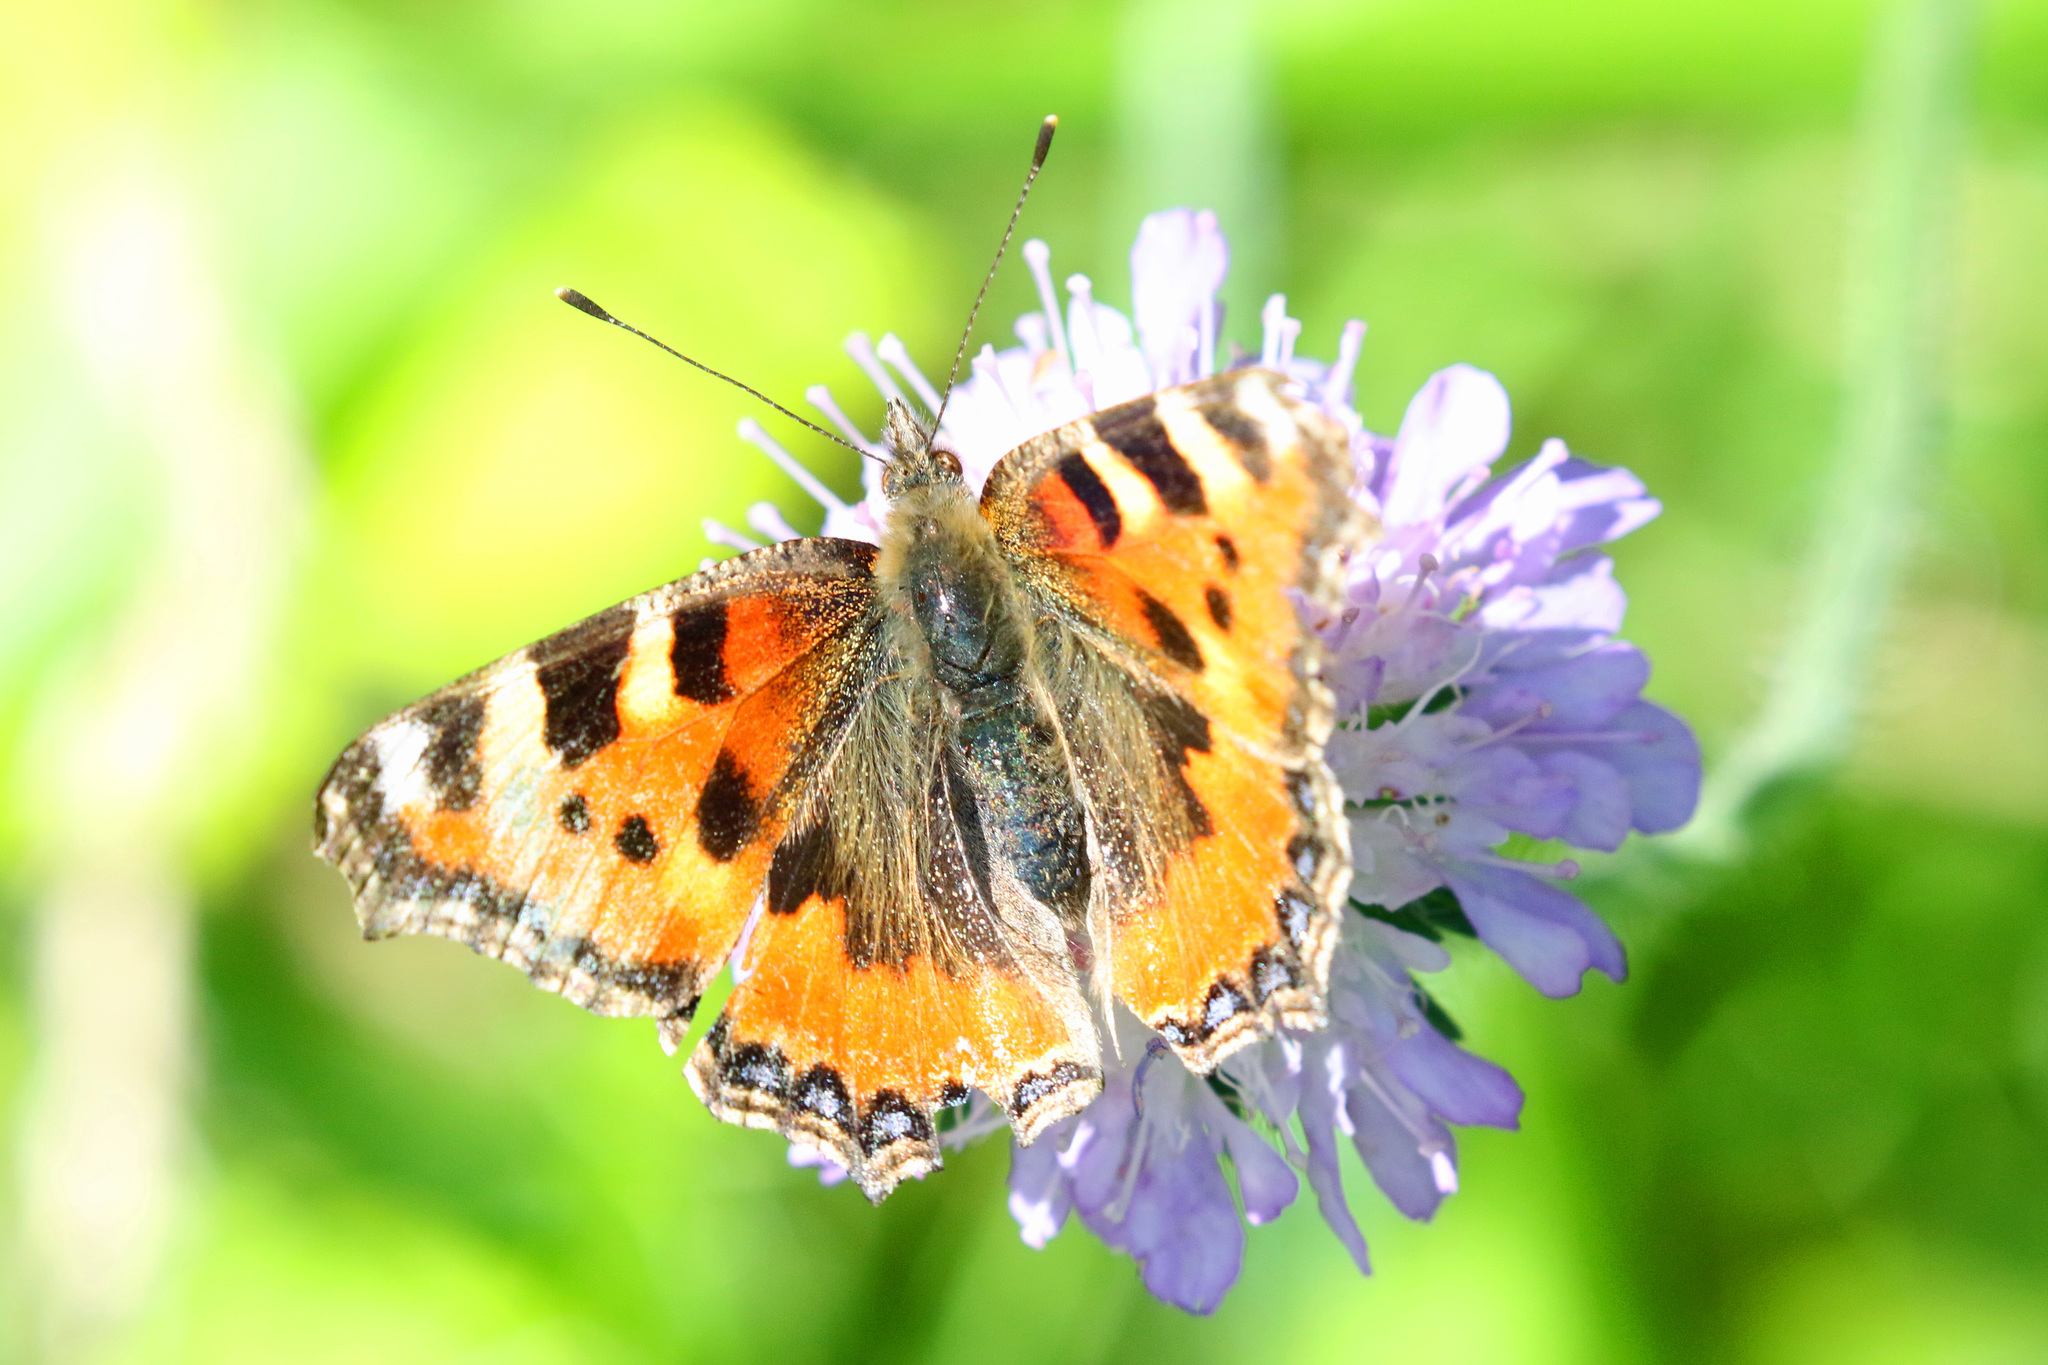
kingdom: Animalia
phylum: Arthropoda
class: Insecta
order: Lepidoptera
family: Nymphalidae
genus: Aglais
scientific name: Aglais urticae
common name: Small tortoiseshell
